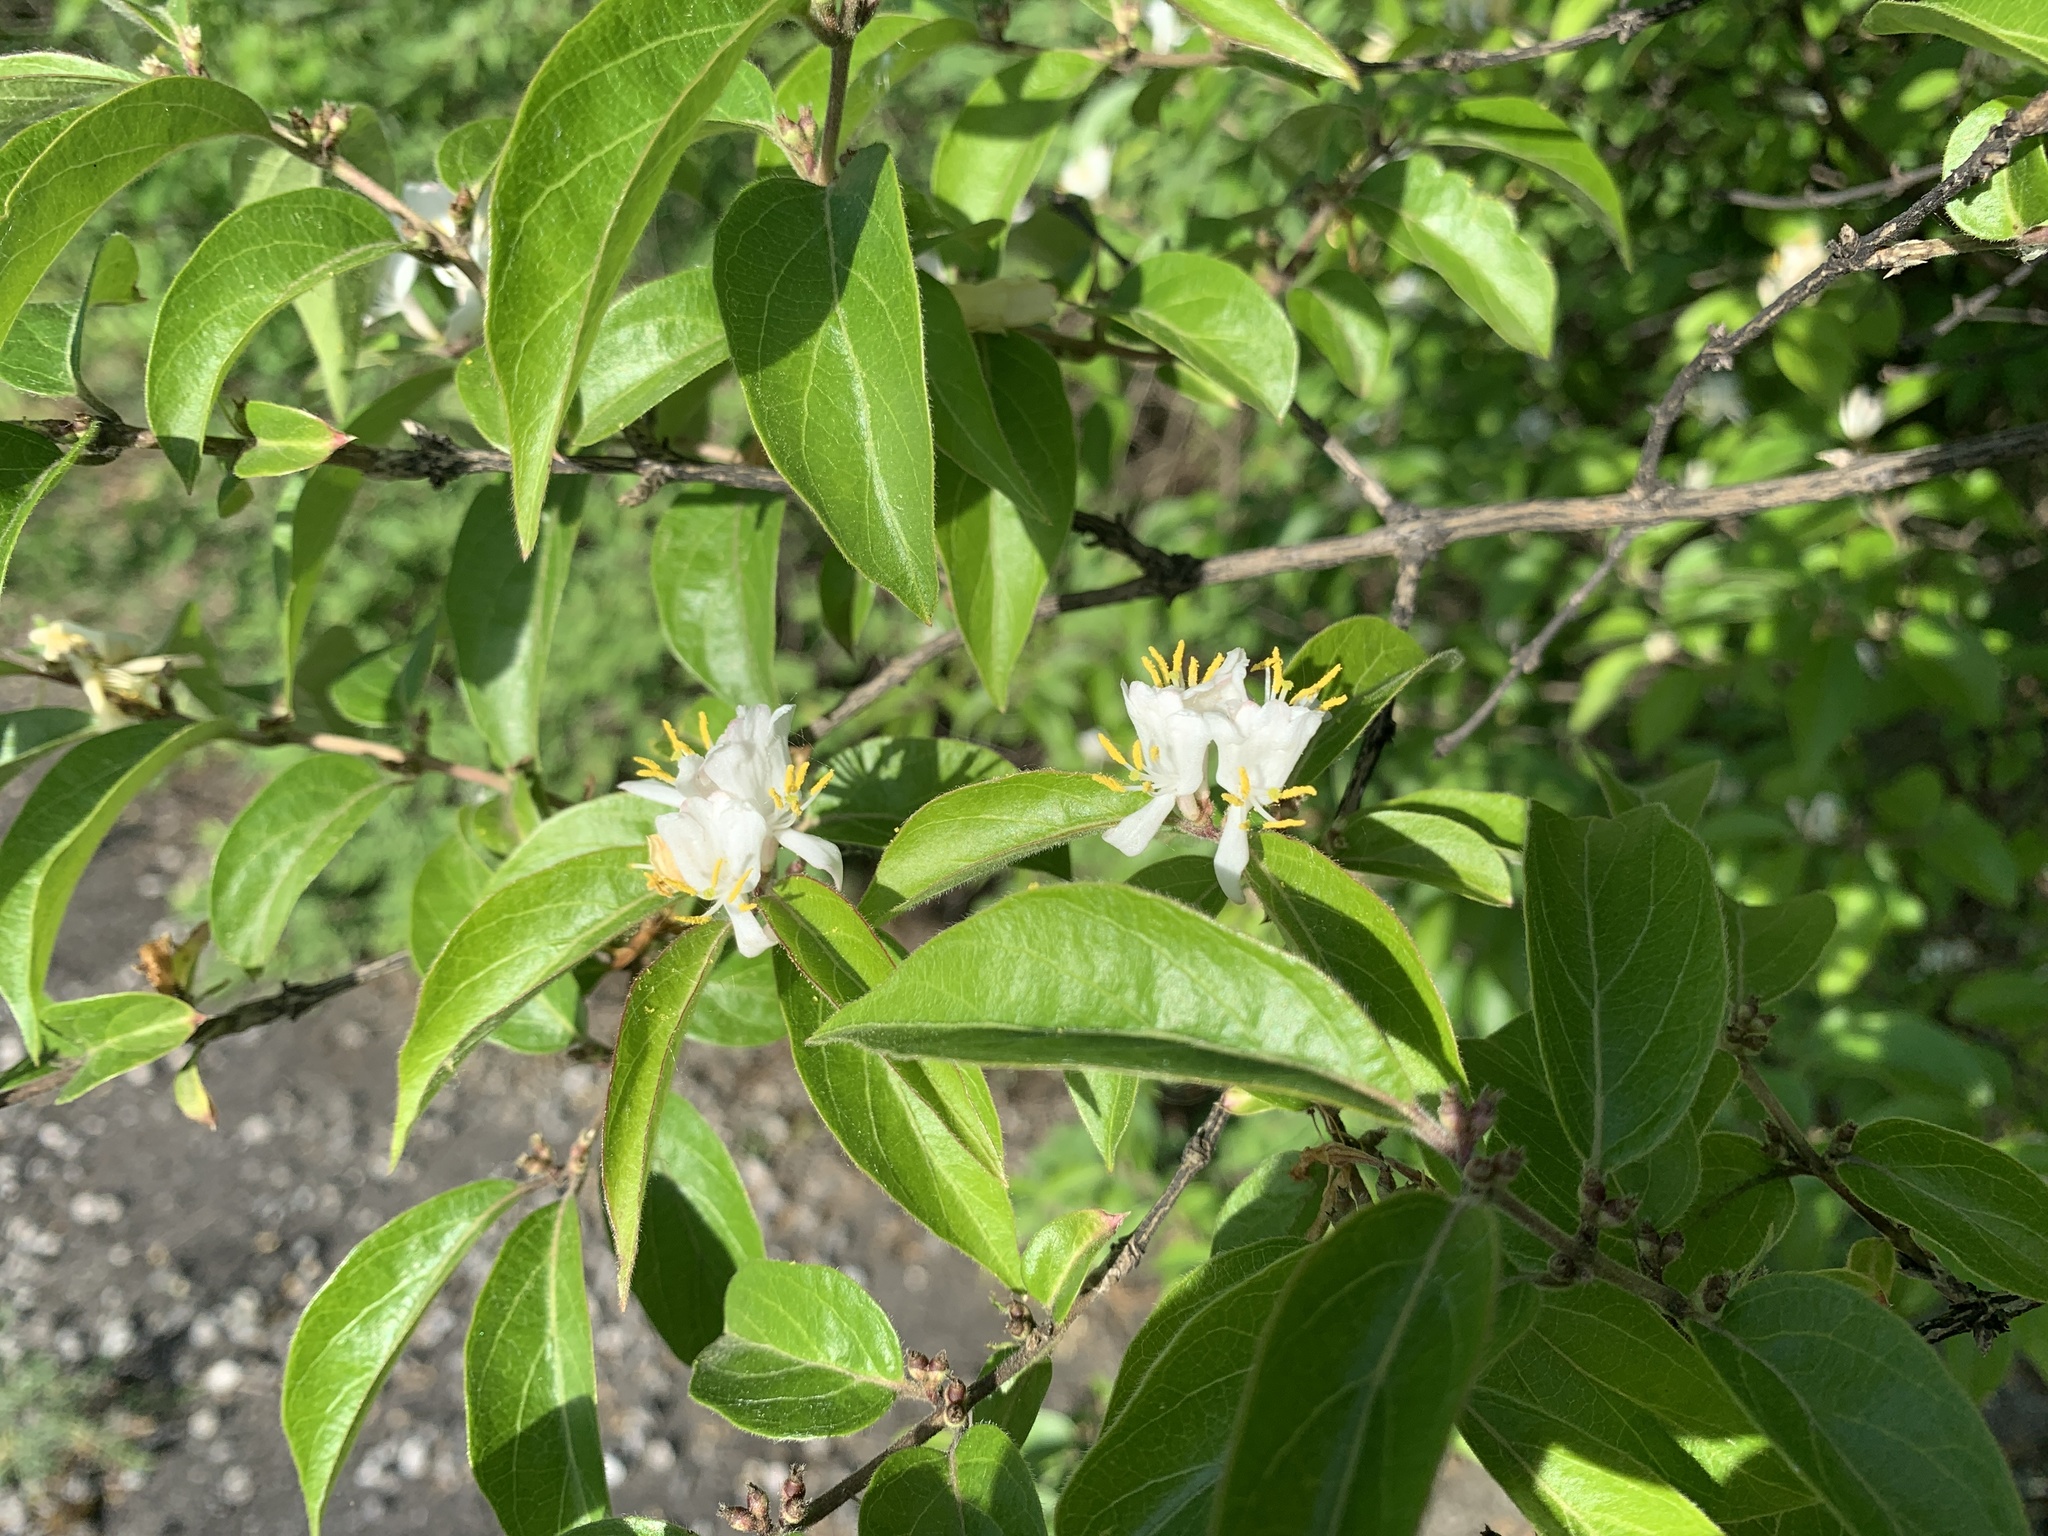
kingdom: Plantae
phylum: Tracheophyta
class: Magnoliopsida
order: Dipsacales
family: Caprifoliaceae
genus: Lonicera
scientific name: Lonicera maackii
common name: Amur honeysuckle
